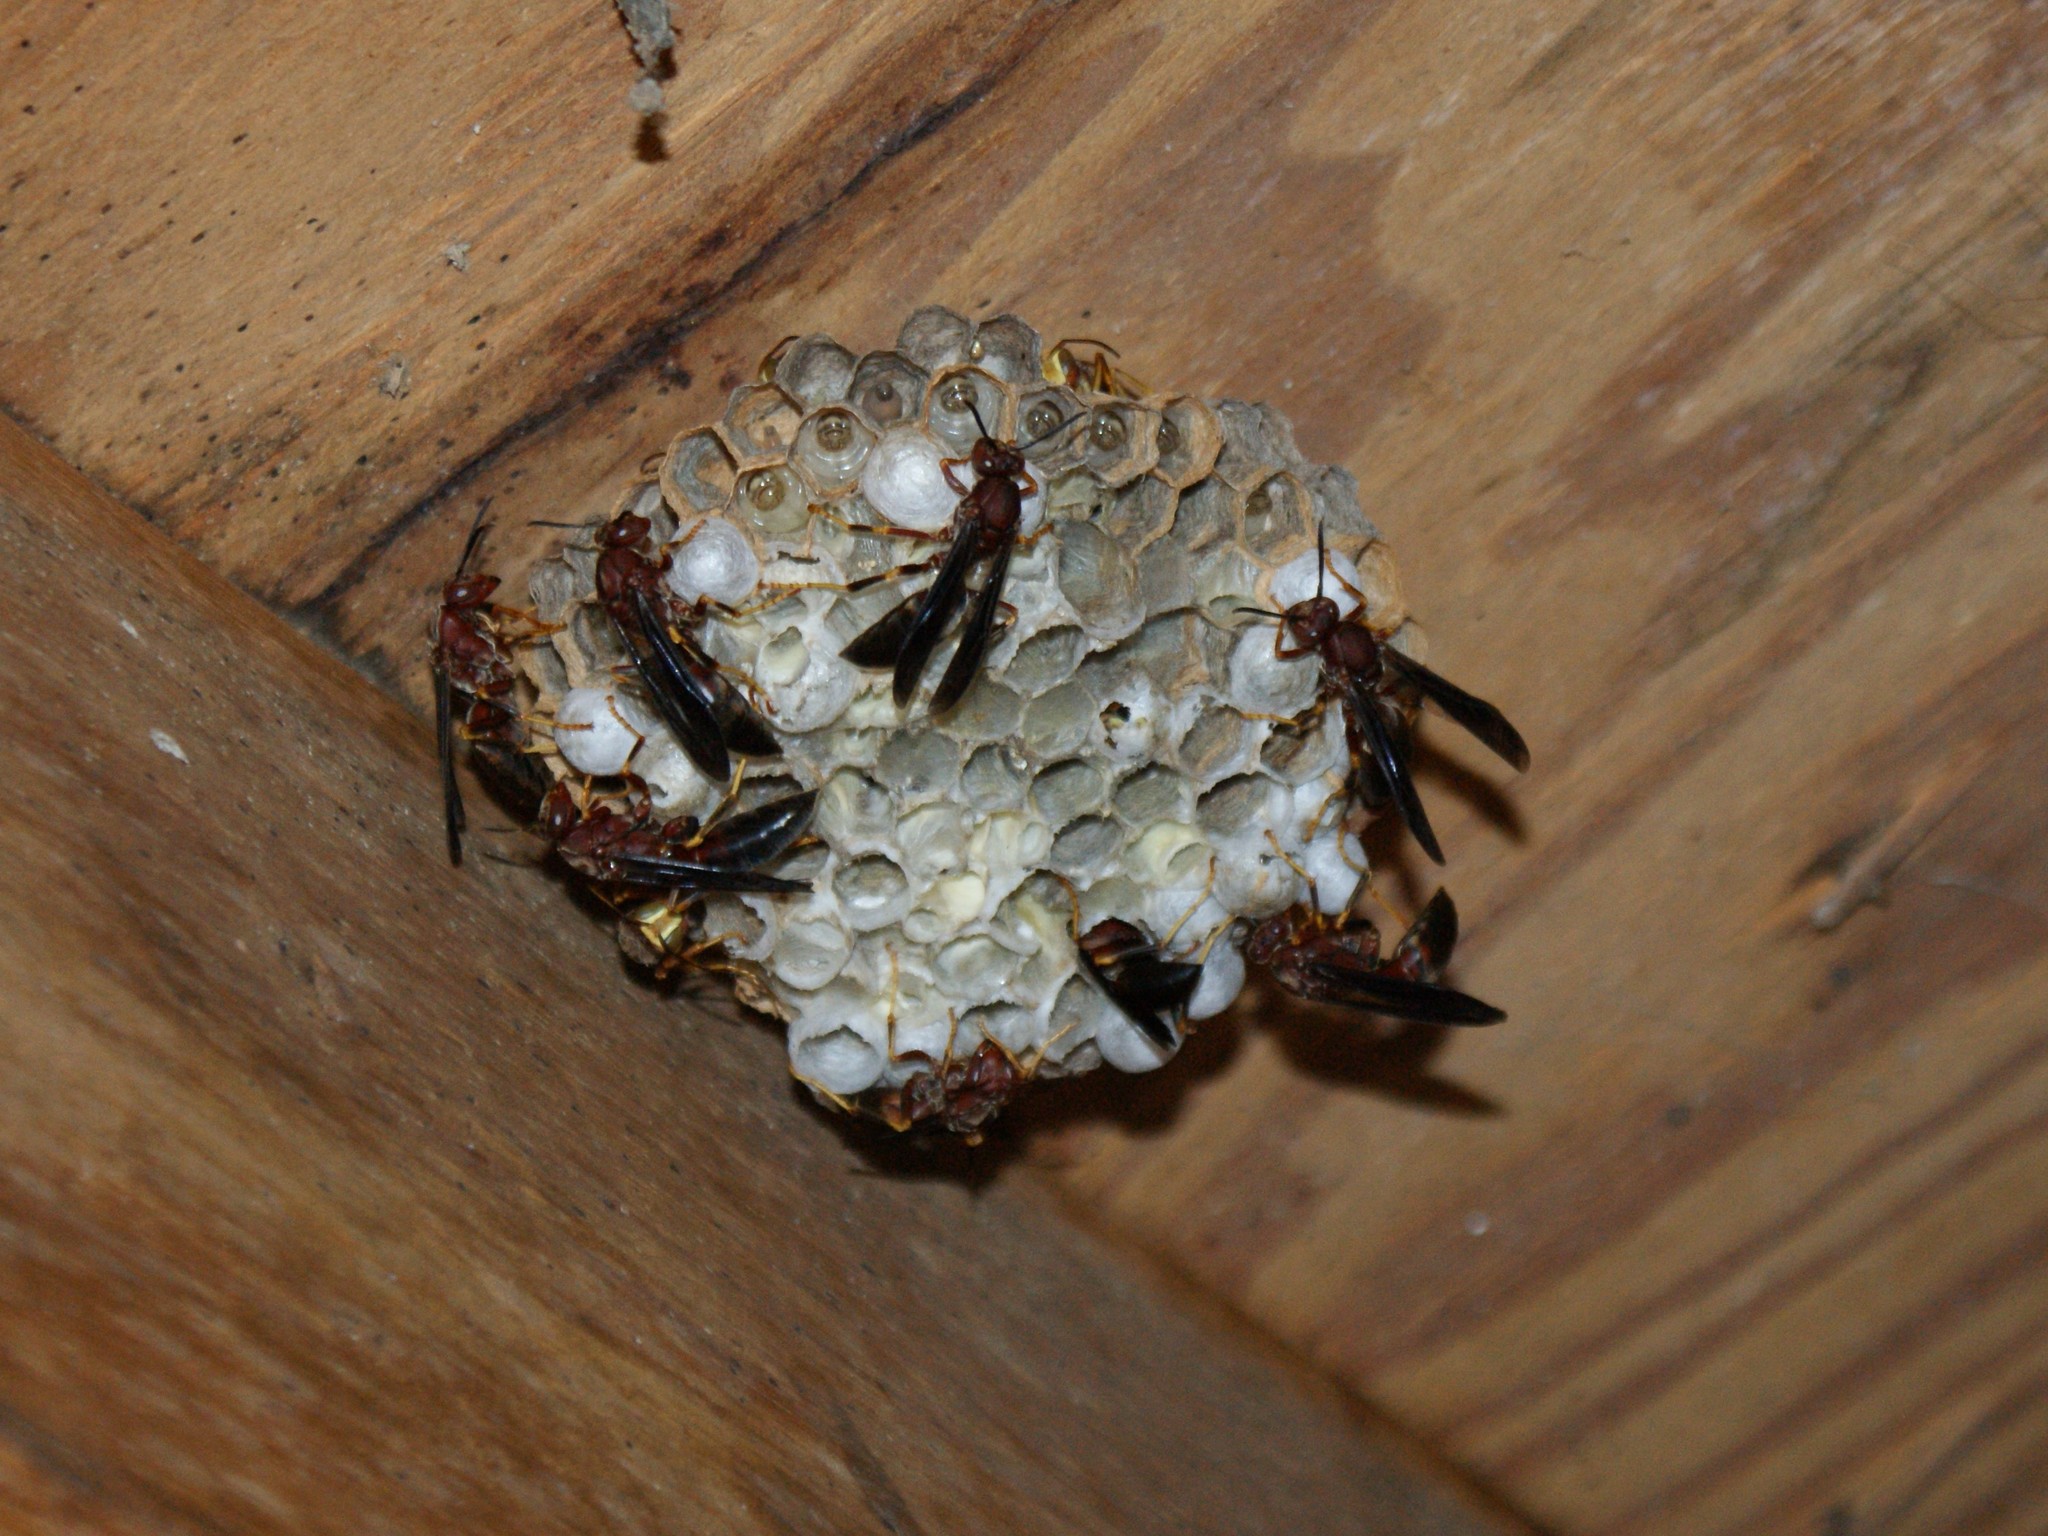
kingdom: Animalia
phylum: Arthropoda
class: Insecta
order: Hymenoptera
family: Eumenidae
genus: Polistes
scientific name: Polistes metricus
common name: Metric paper wasp
